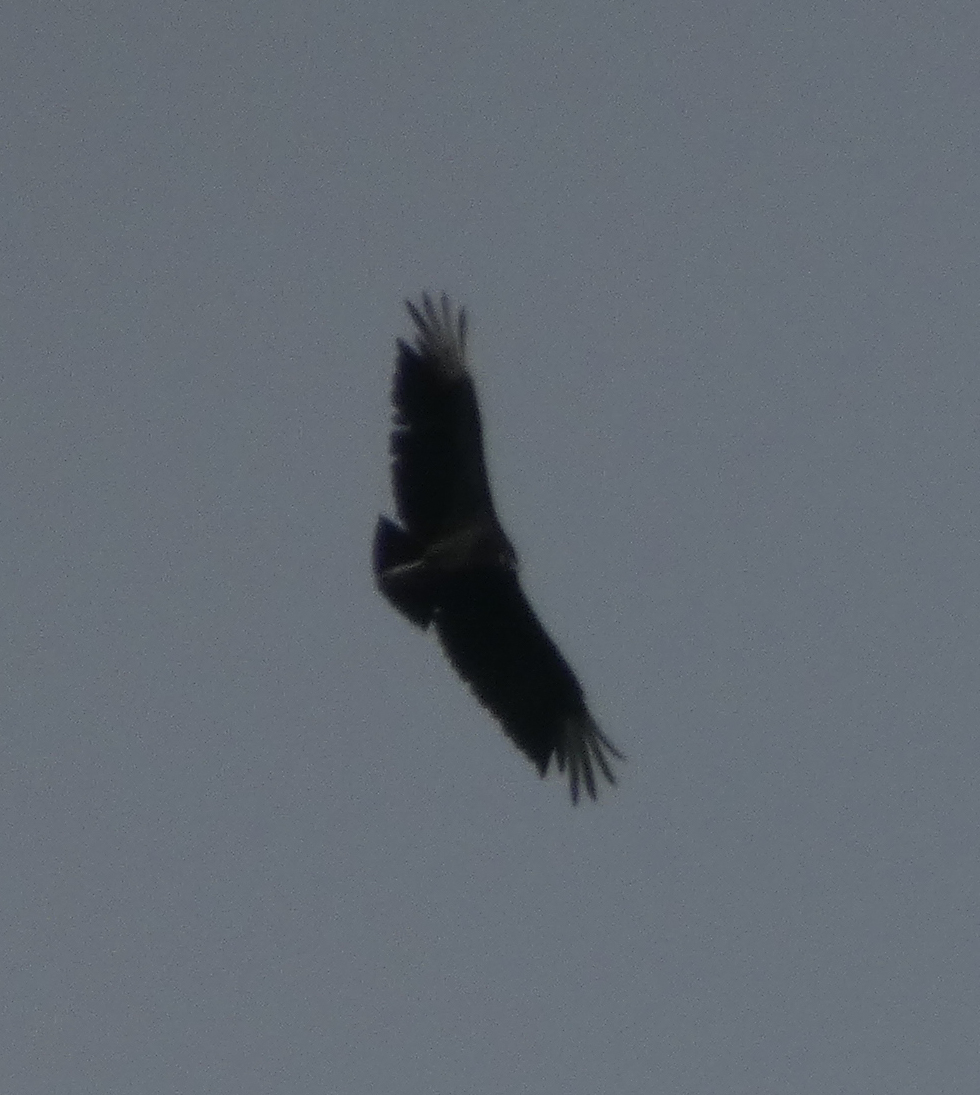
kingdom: Animalia
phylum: Chordata
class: Aves
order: Accipitriformes
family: Cathartidae
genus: Coragyps
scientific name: Coragyps atratus
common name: Black vulture
